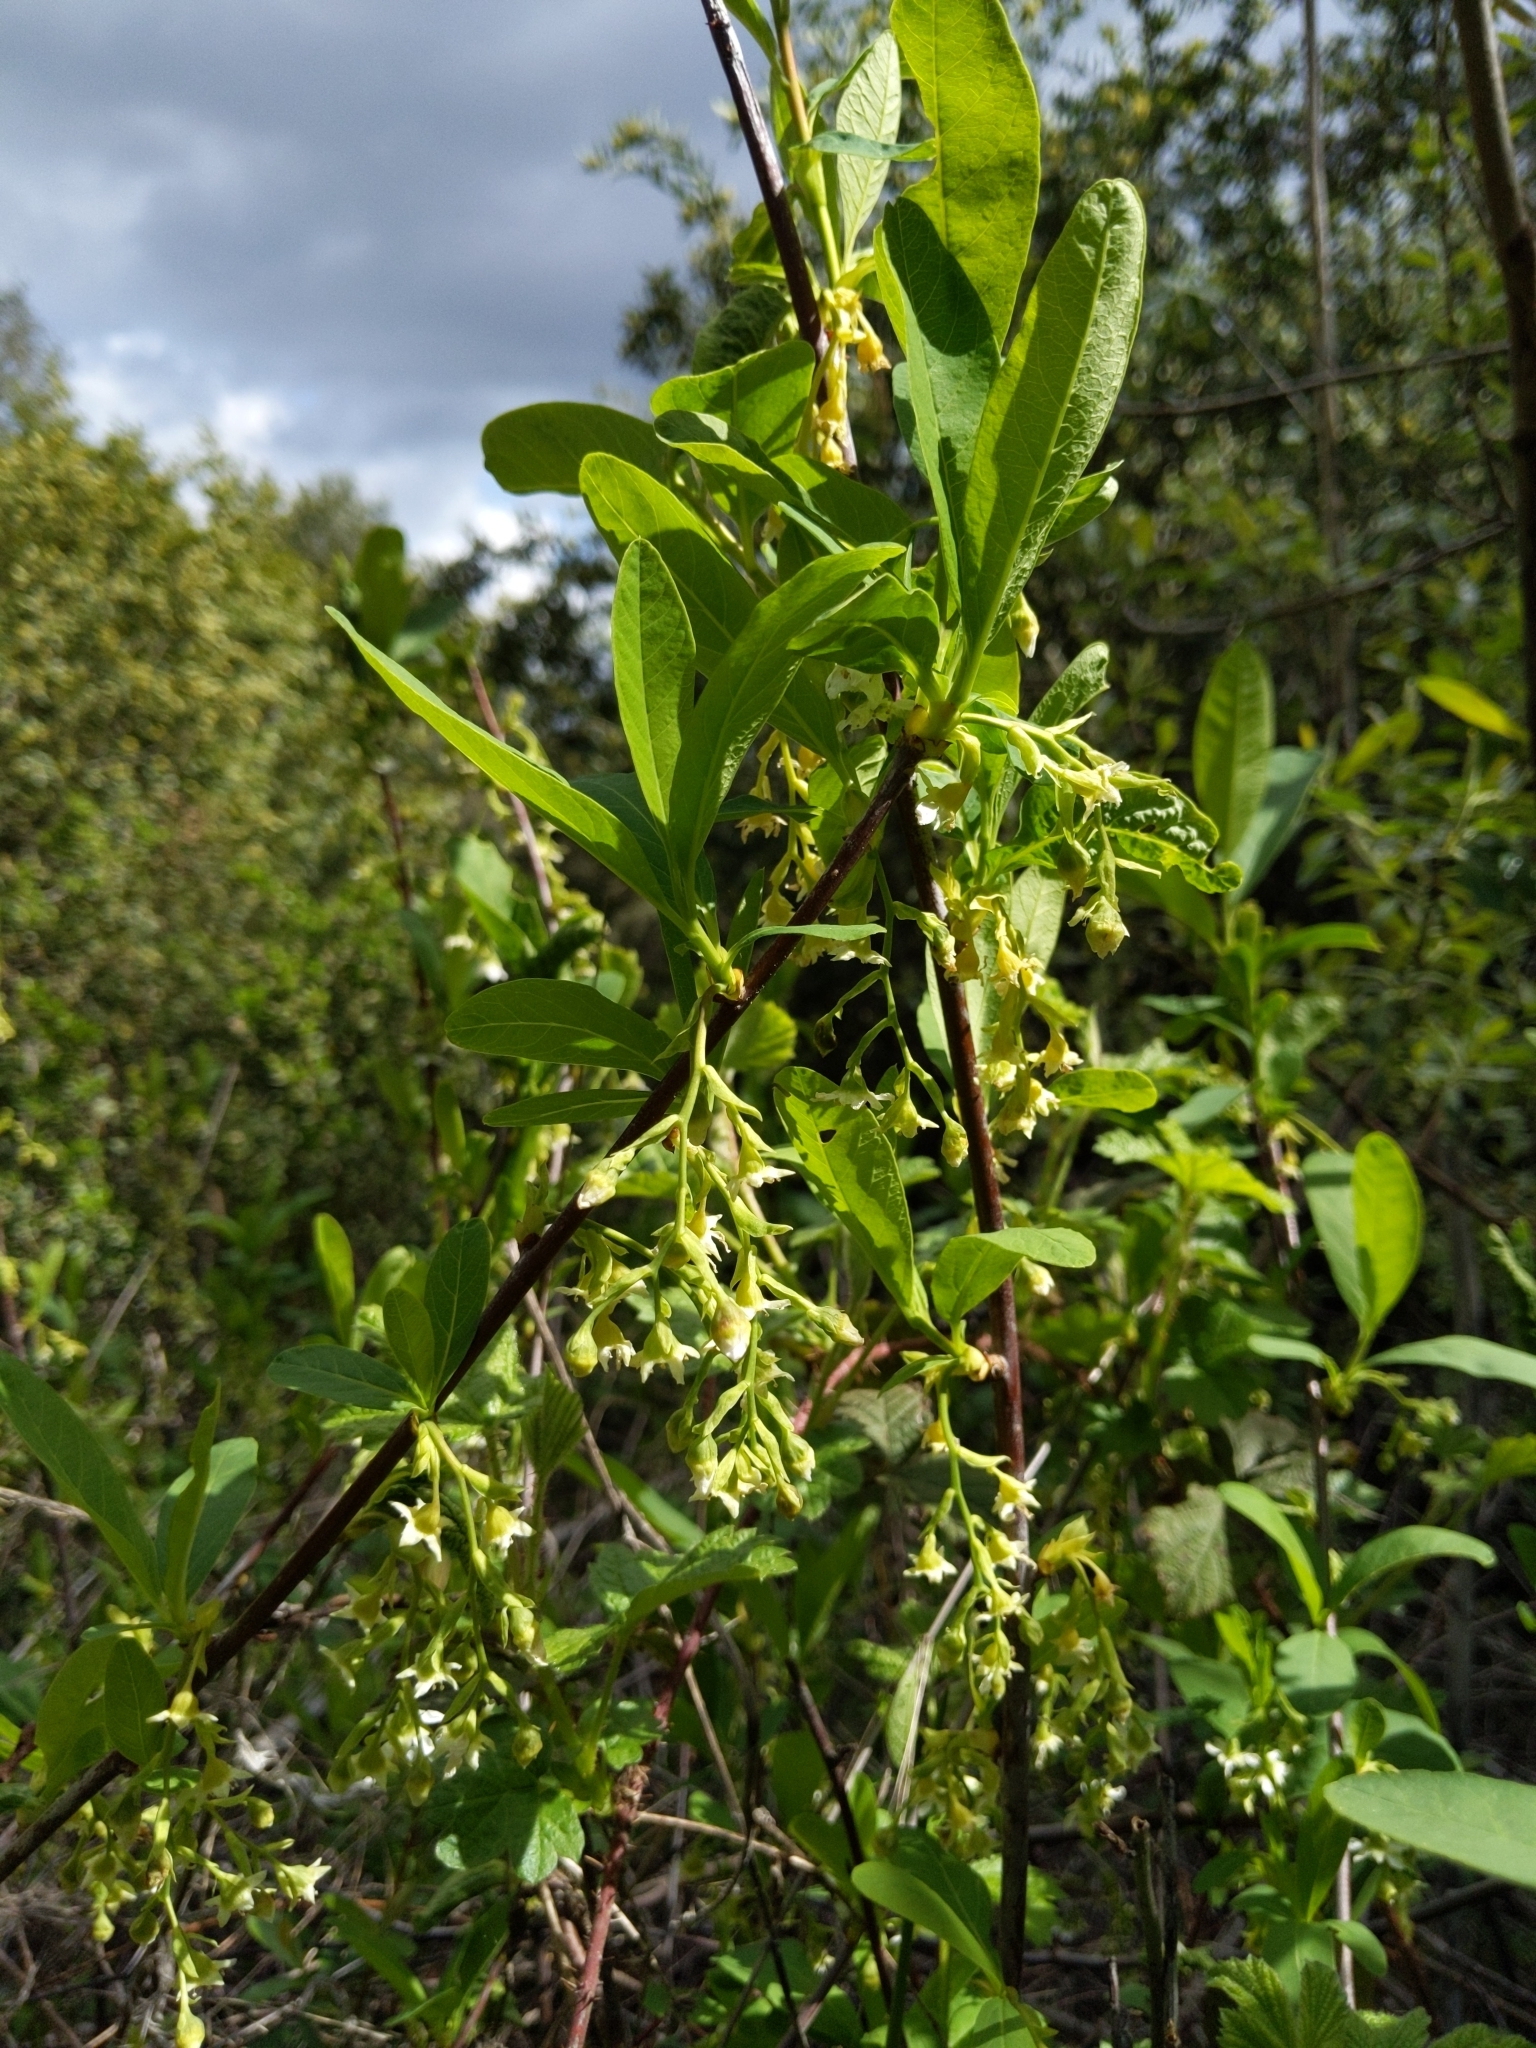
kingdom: Plantae
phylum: Tracheophyta
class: Magnoliopsida
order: Rosales
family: Rosaceae
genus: Oemleria
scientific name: Oemleria cerasiformis
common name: Osoberry
